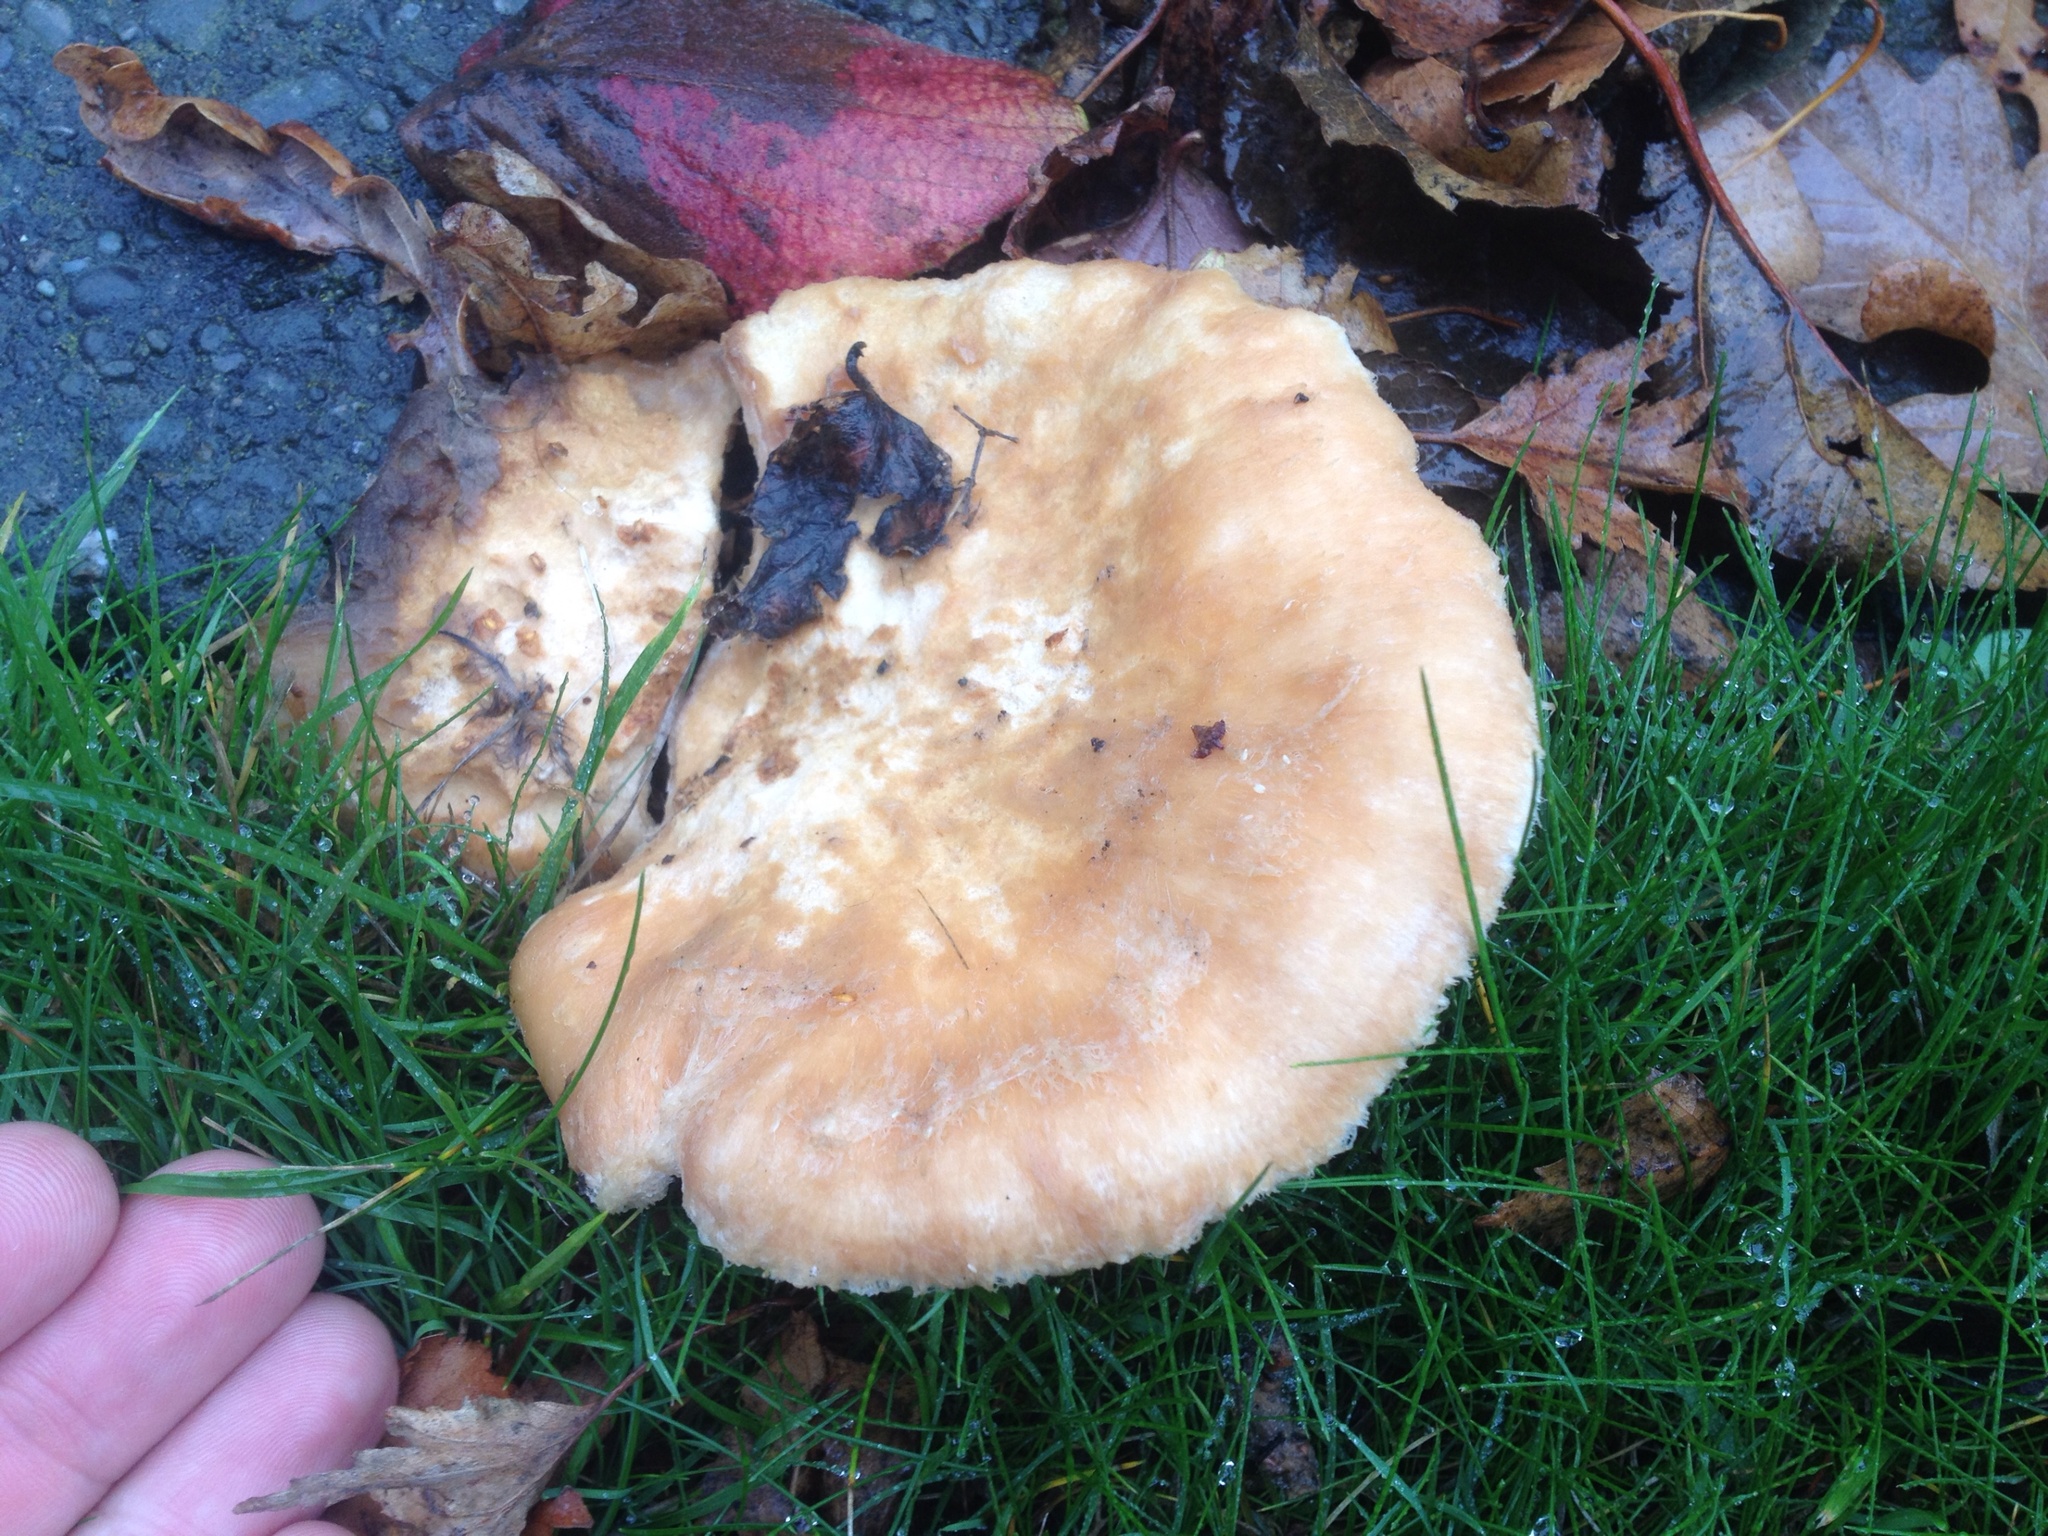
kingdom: Fungi
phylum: Basidiomycota
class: Agaricomycetes
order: Russulales
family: Russulaceae
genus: Lactarius
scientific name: Lactarius pubescens
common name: Bearded milkcap
